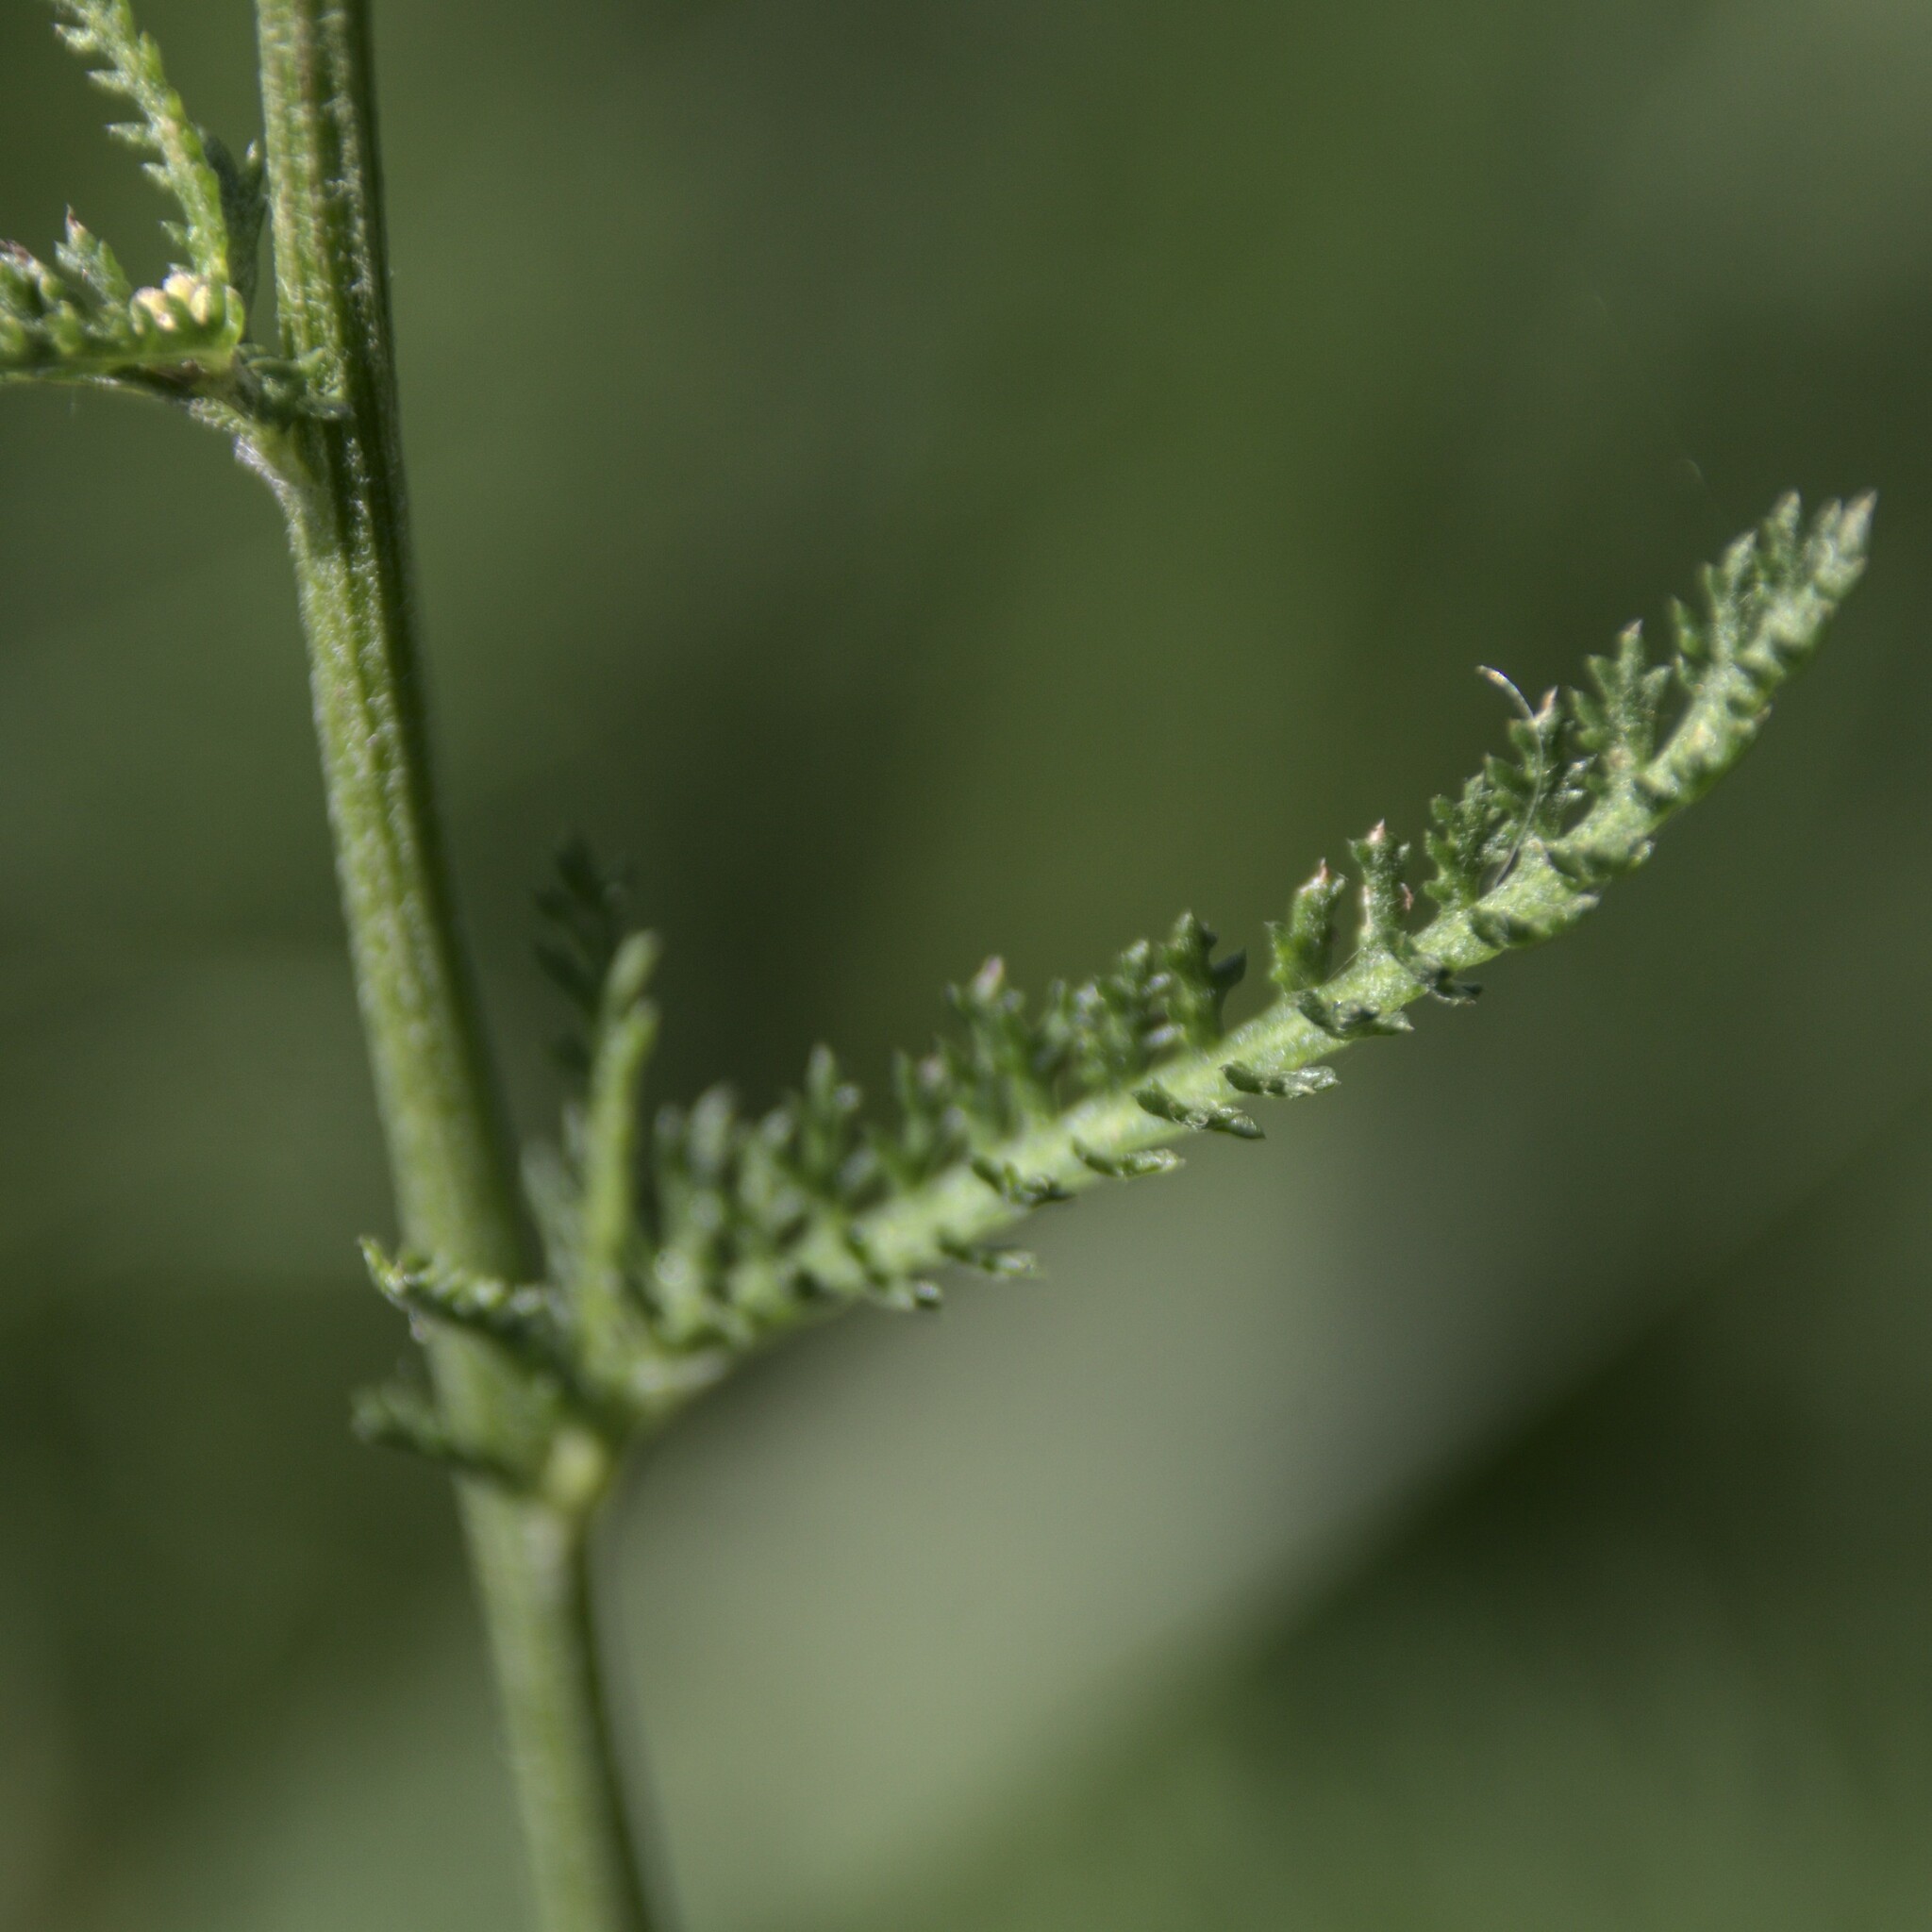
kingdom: Plantae
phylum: Tracheophyta
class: Magnoliopsida
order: Asterales
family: Asteraceae
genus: Achillea
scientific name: Achillea millefolium
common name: Yarrow
